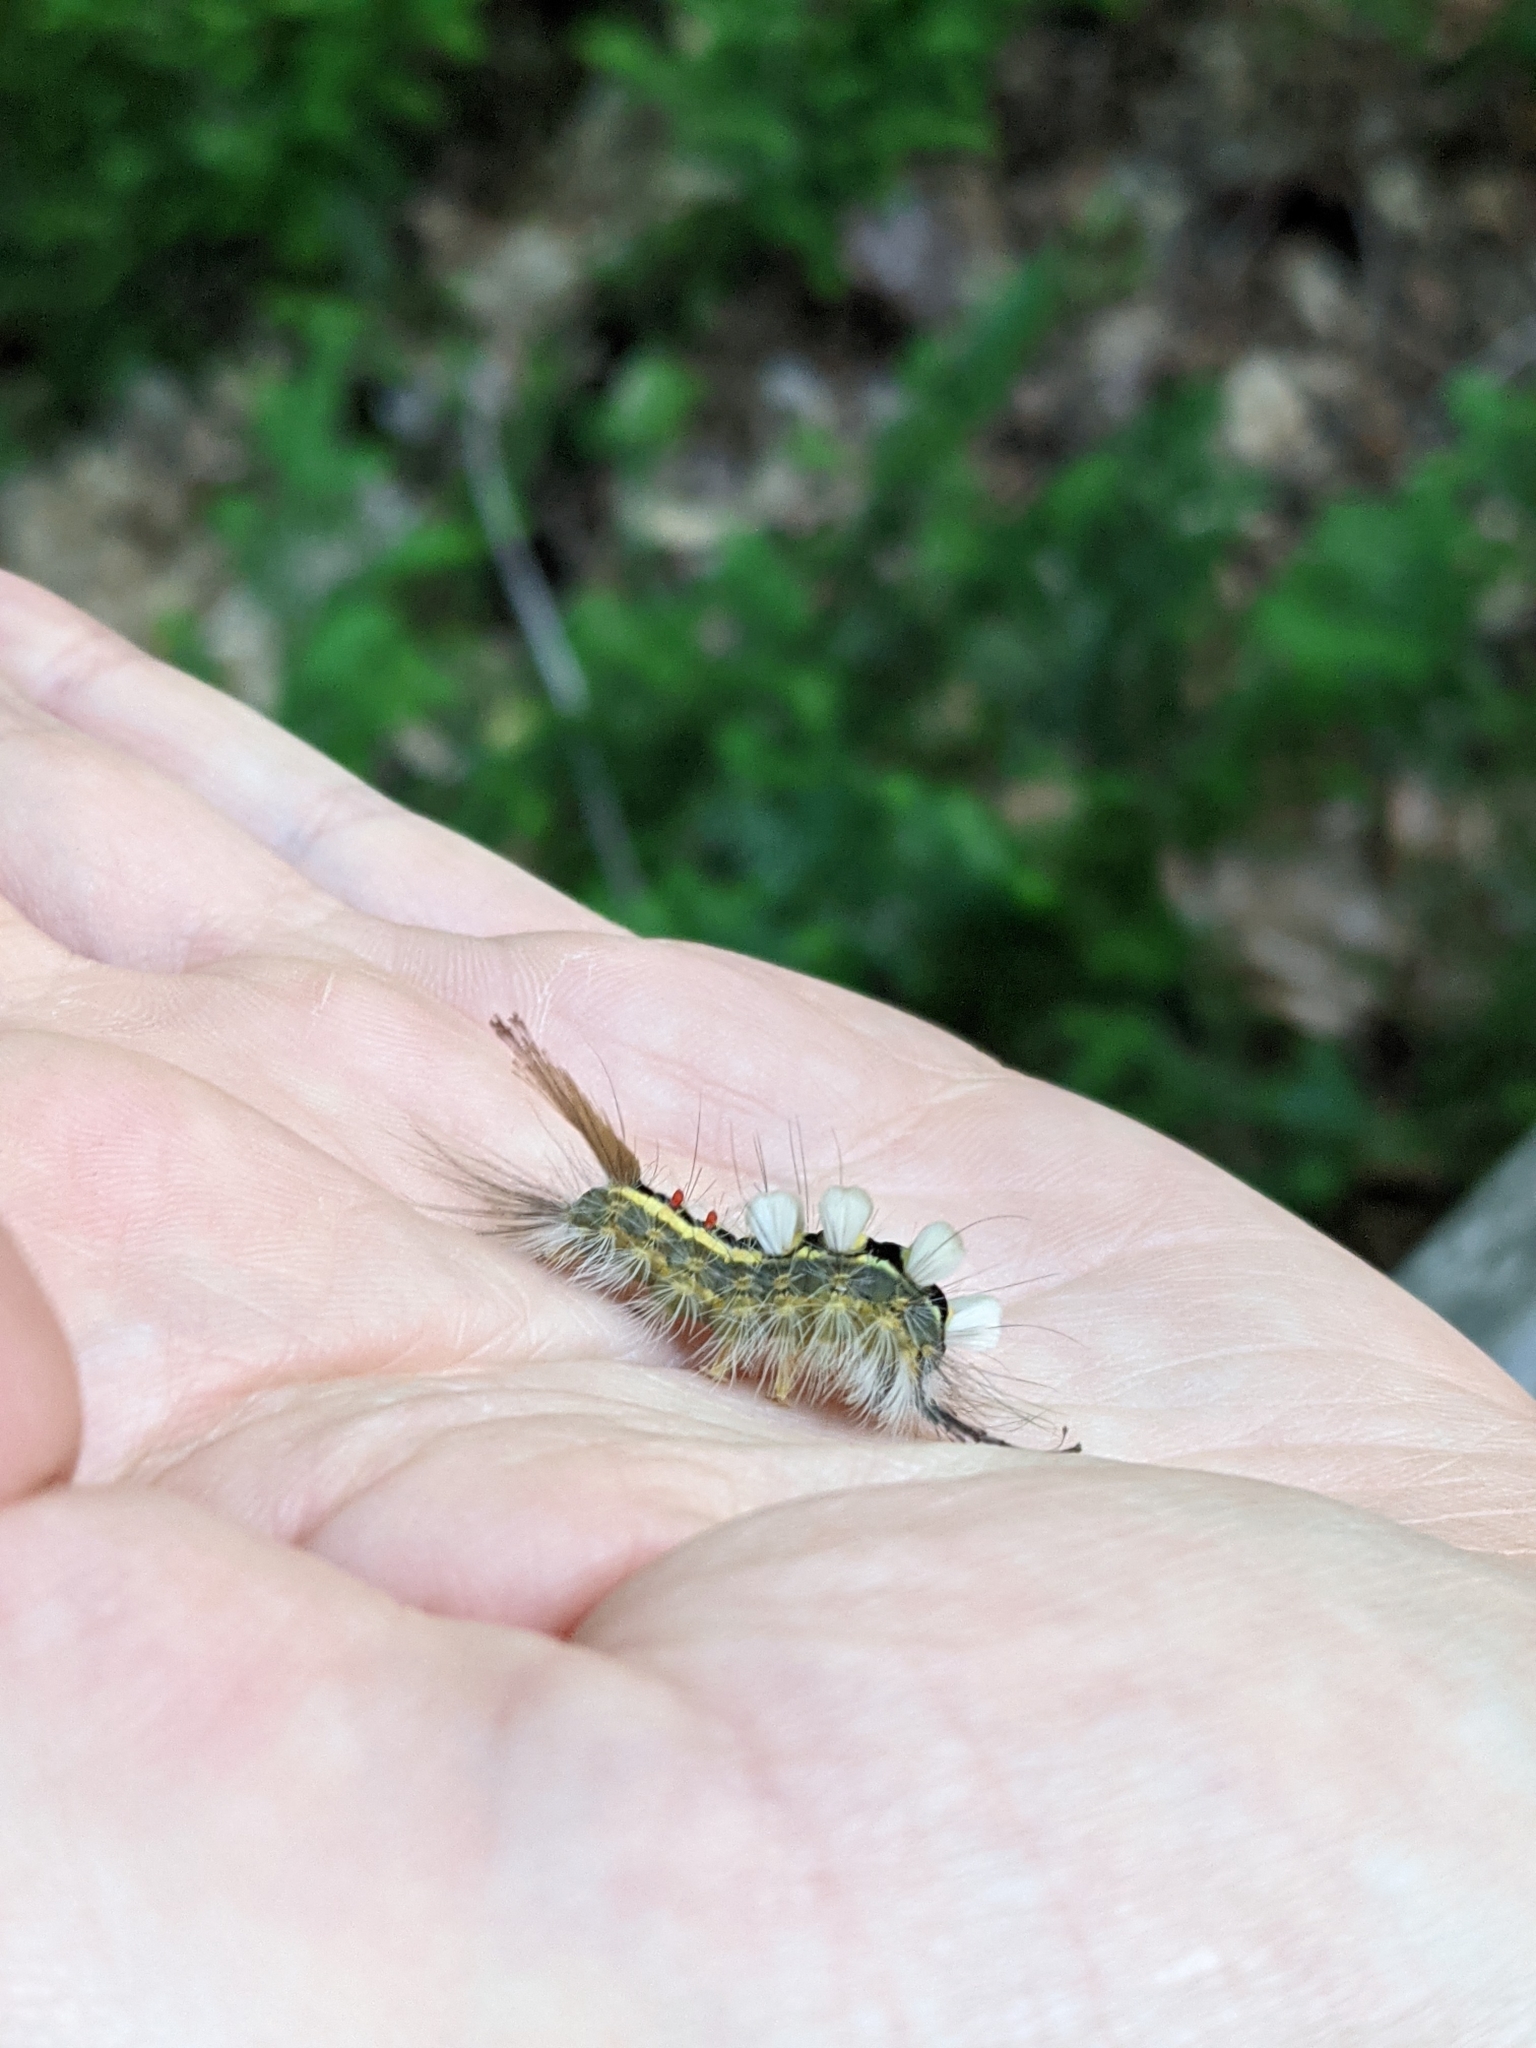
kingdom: Animalia
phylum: Arthropoda
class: Insecta
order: Lepidoptera
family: Erebidae
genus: Orgyia
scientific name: Orgyia leucostigma
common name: White-marked tussock moth
